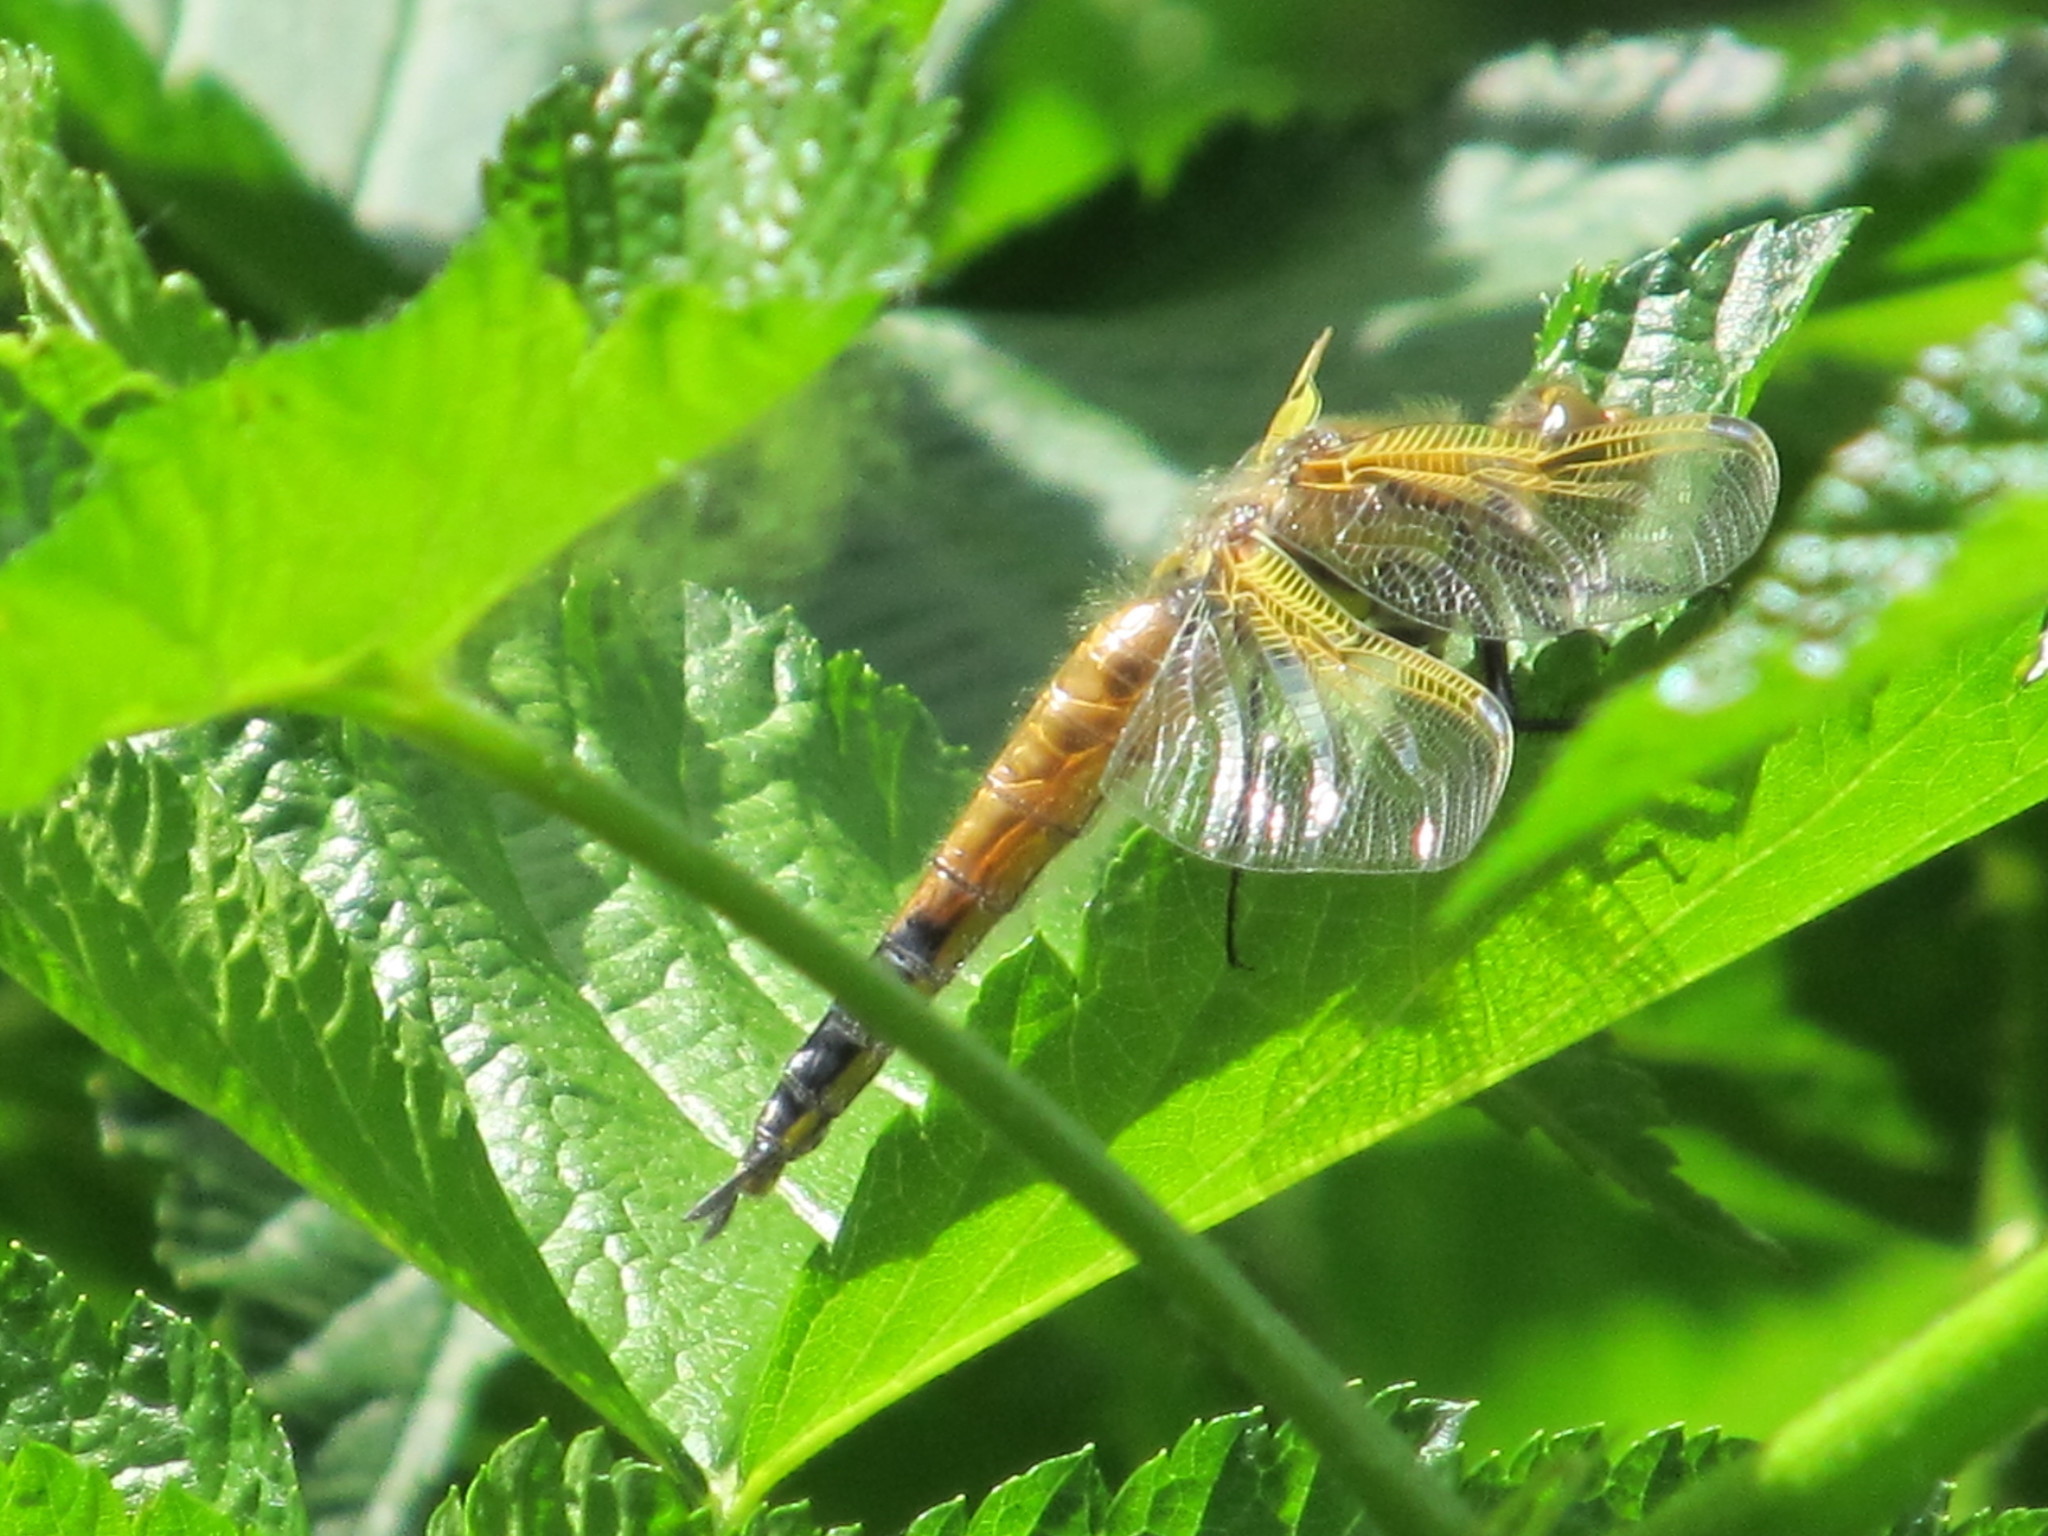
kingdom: Animalia
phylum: Arthropoda
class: Insecta
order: Odonata
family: Libellulidae
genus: Libellula
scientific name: Libellula quadrimaculata
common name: Four-spotted chaser
